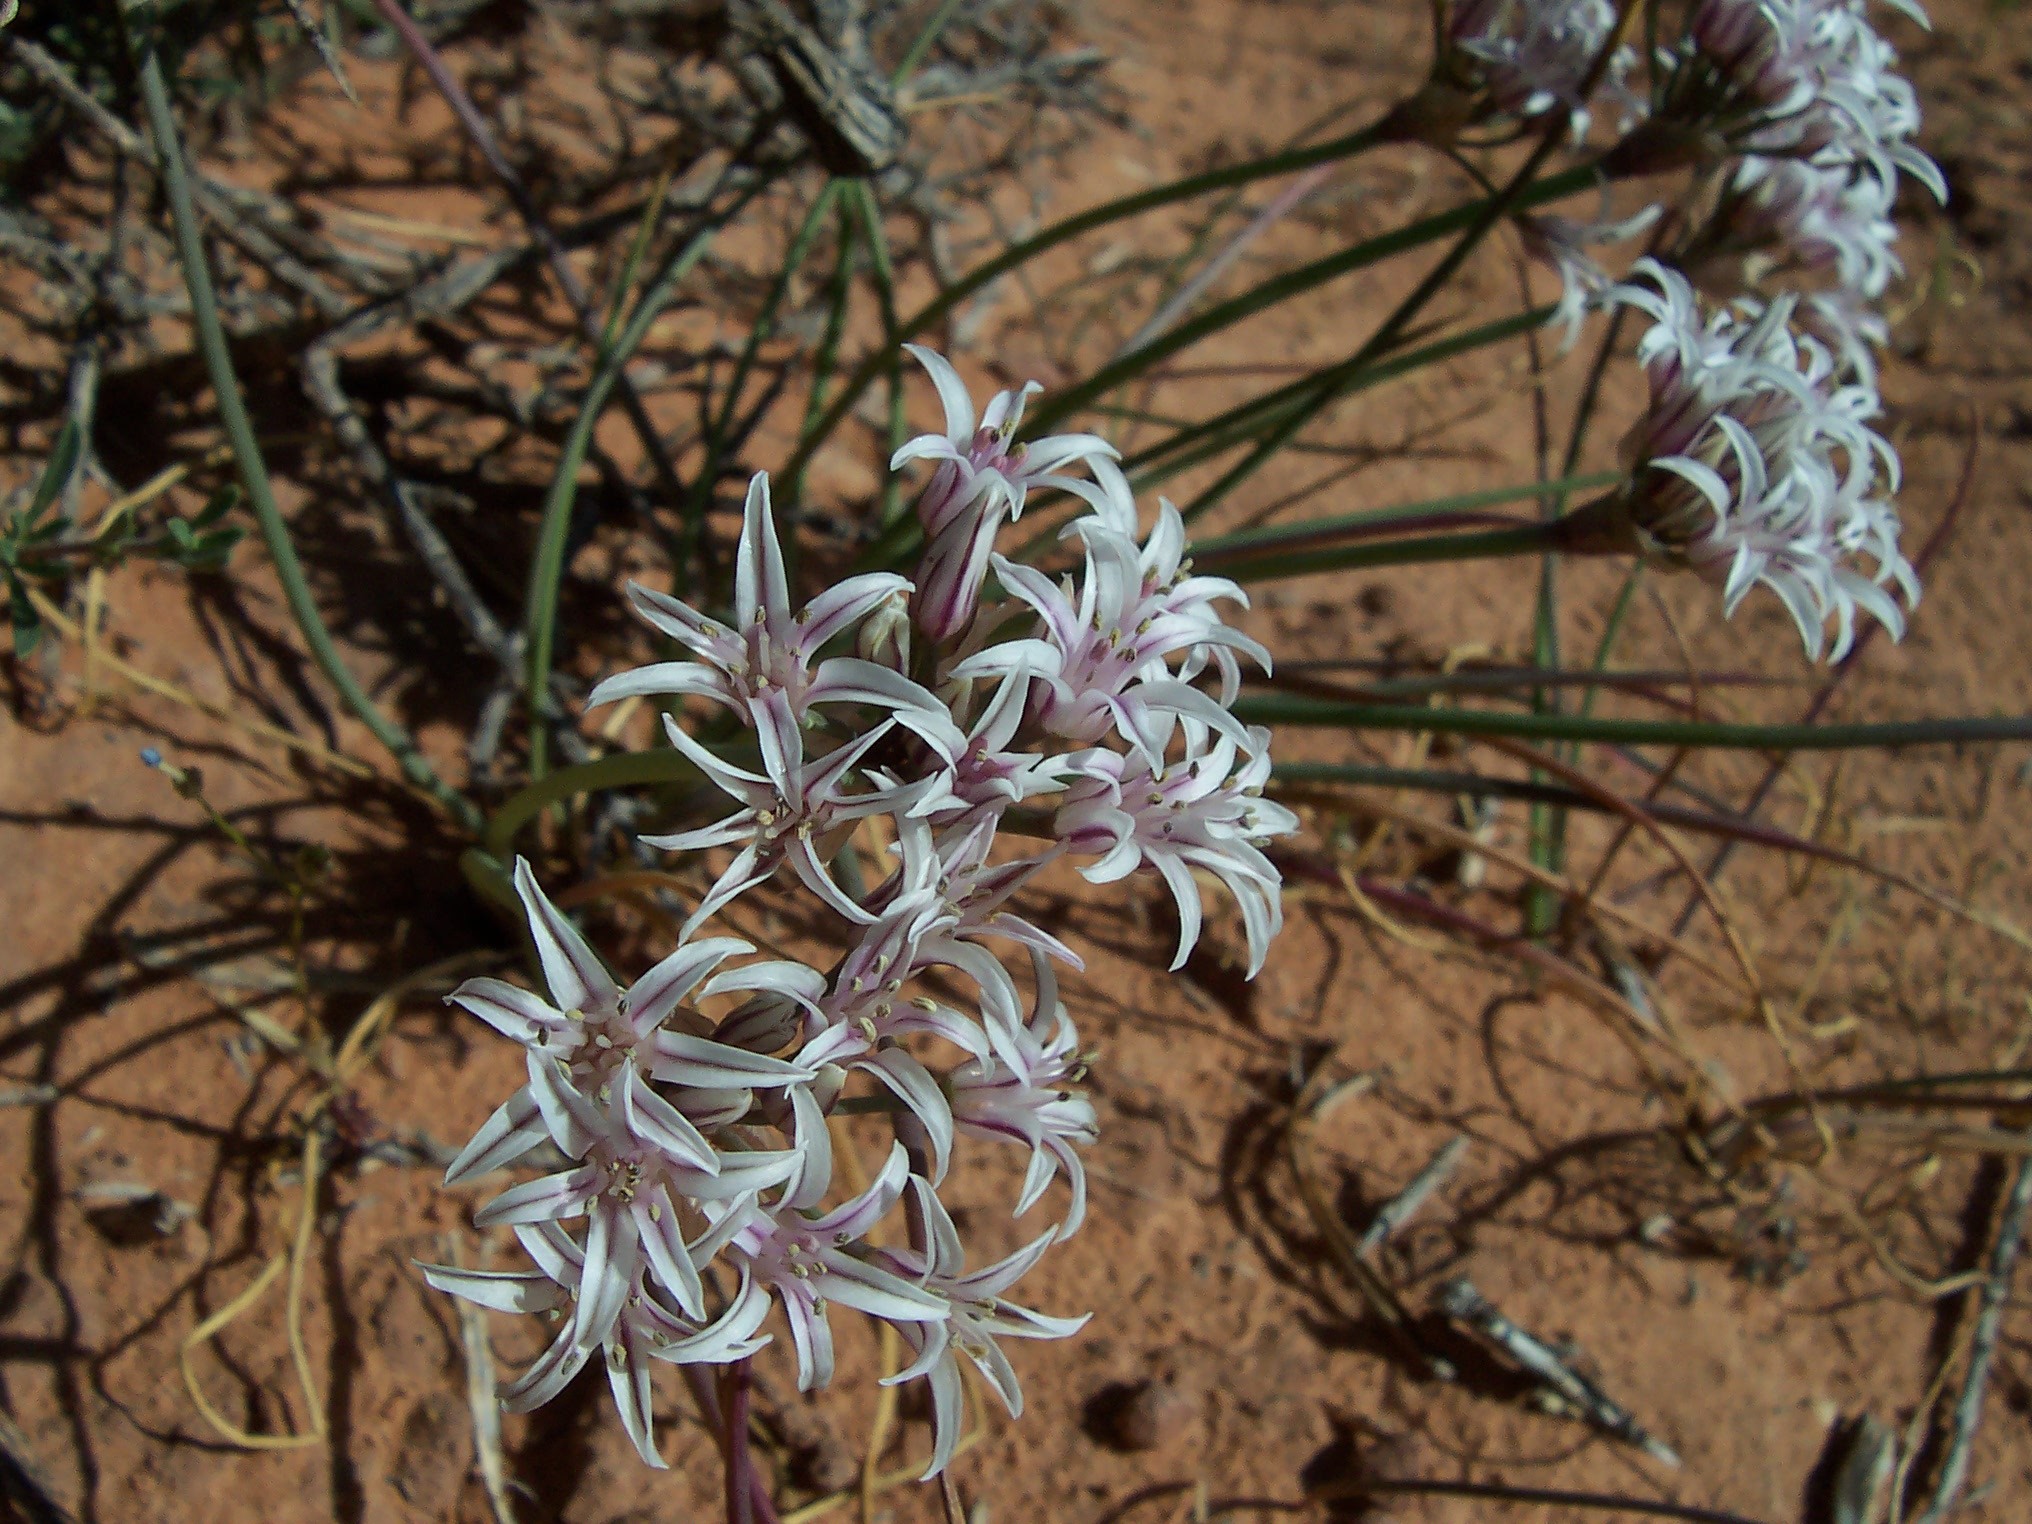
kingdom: Plantae
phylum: Tracheophyta
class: Liliopsida
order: Asparagales
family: Amaryllidaceae
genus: Allium
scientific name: Allium macropetalum
